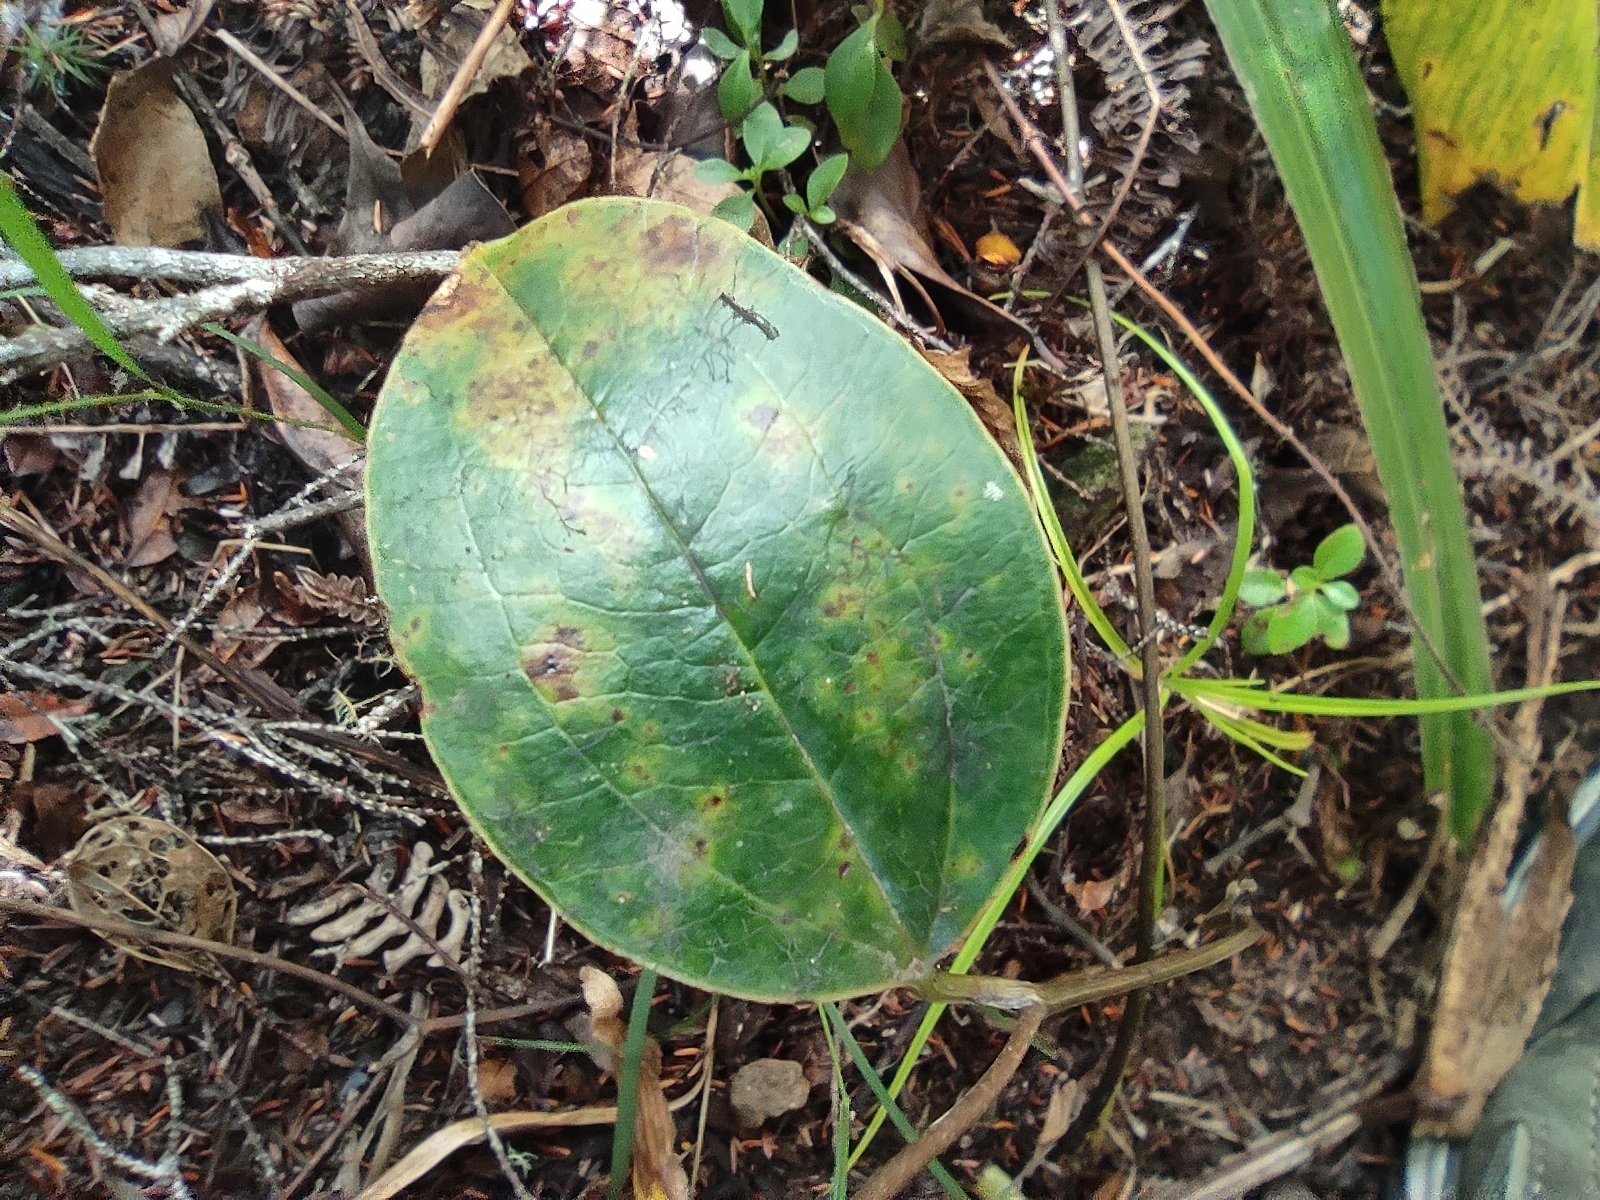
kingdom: Plantae
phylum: Tracheophyta
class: Liliopsida
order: Liliales
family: Smilacaceae
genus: Smilax
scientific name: Smilax anceps
